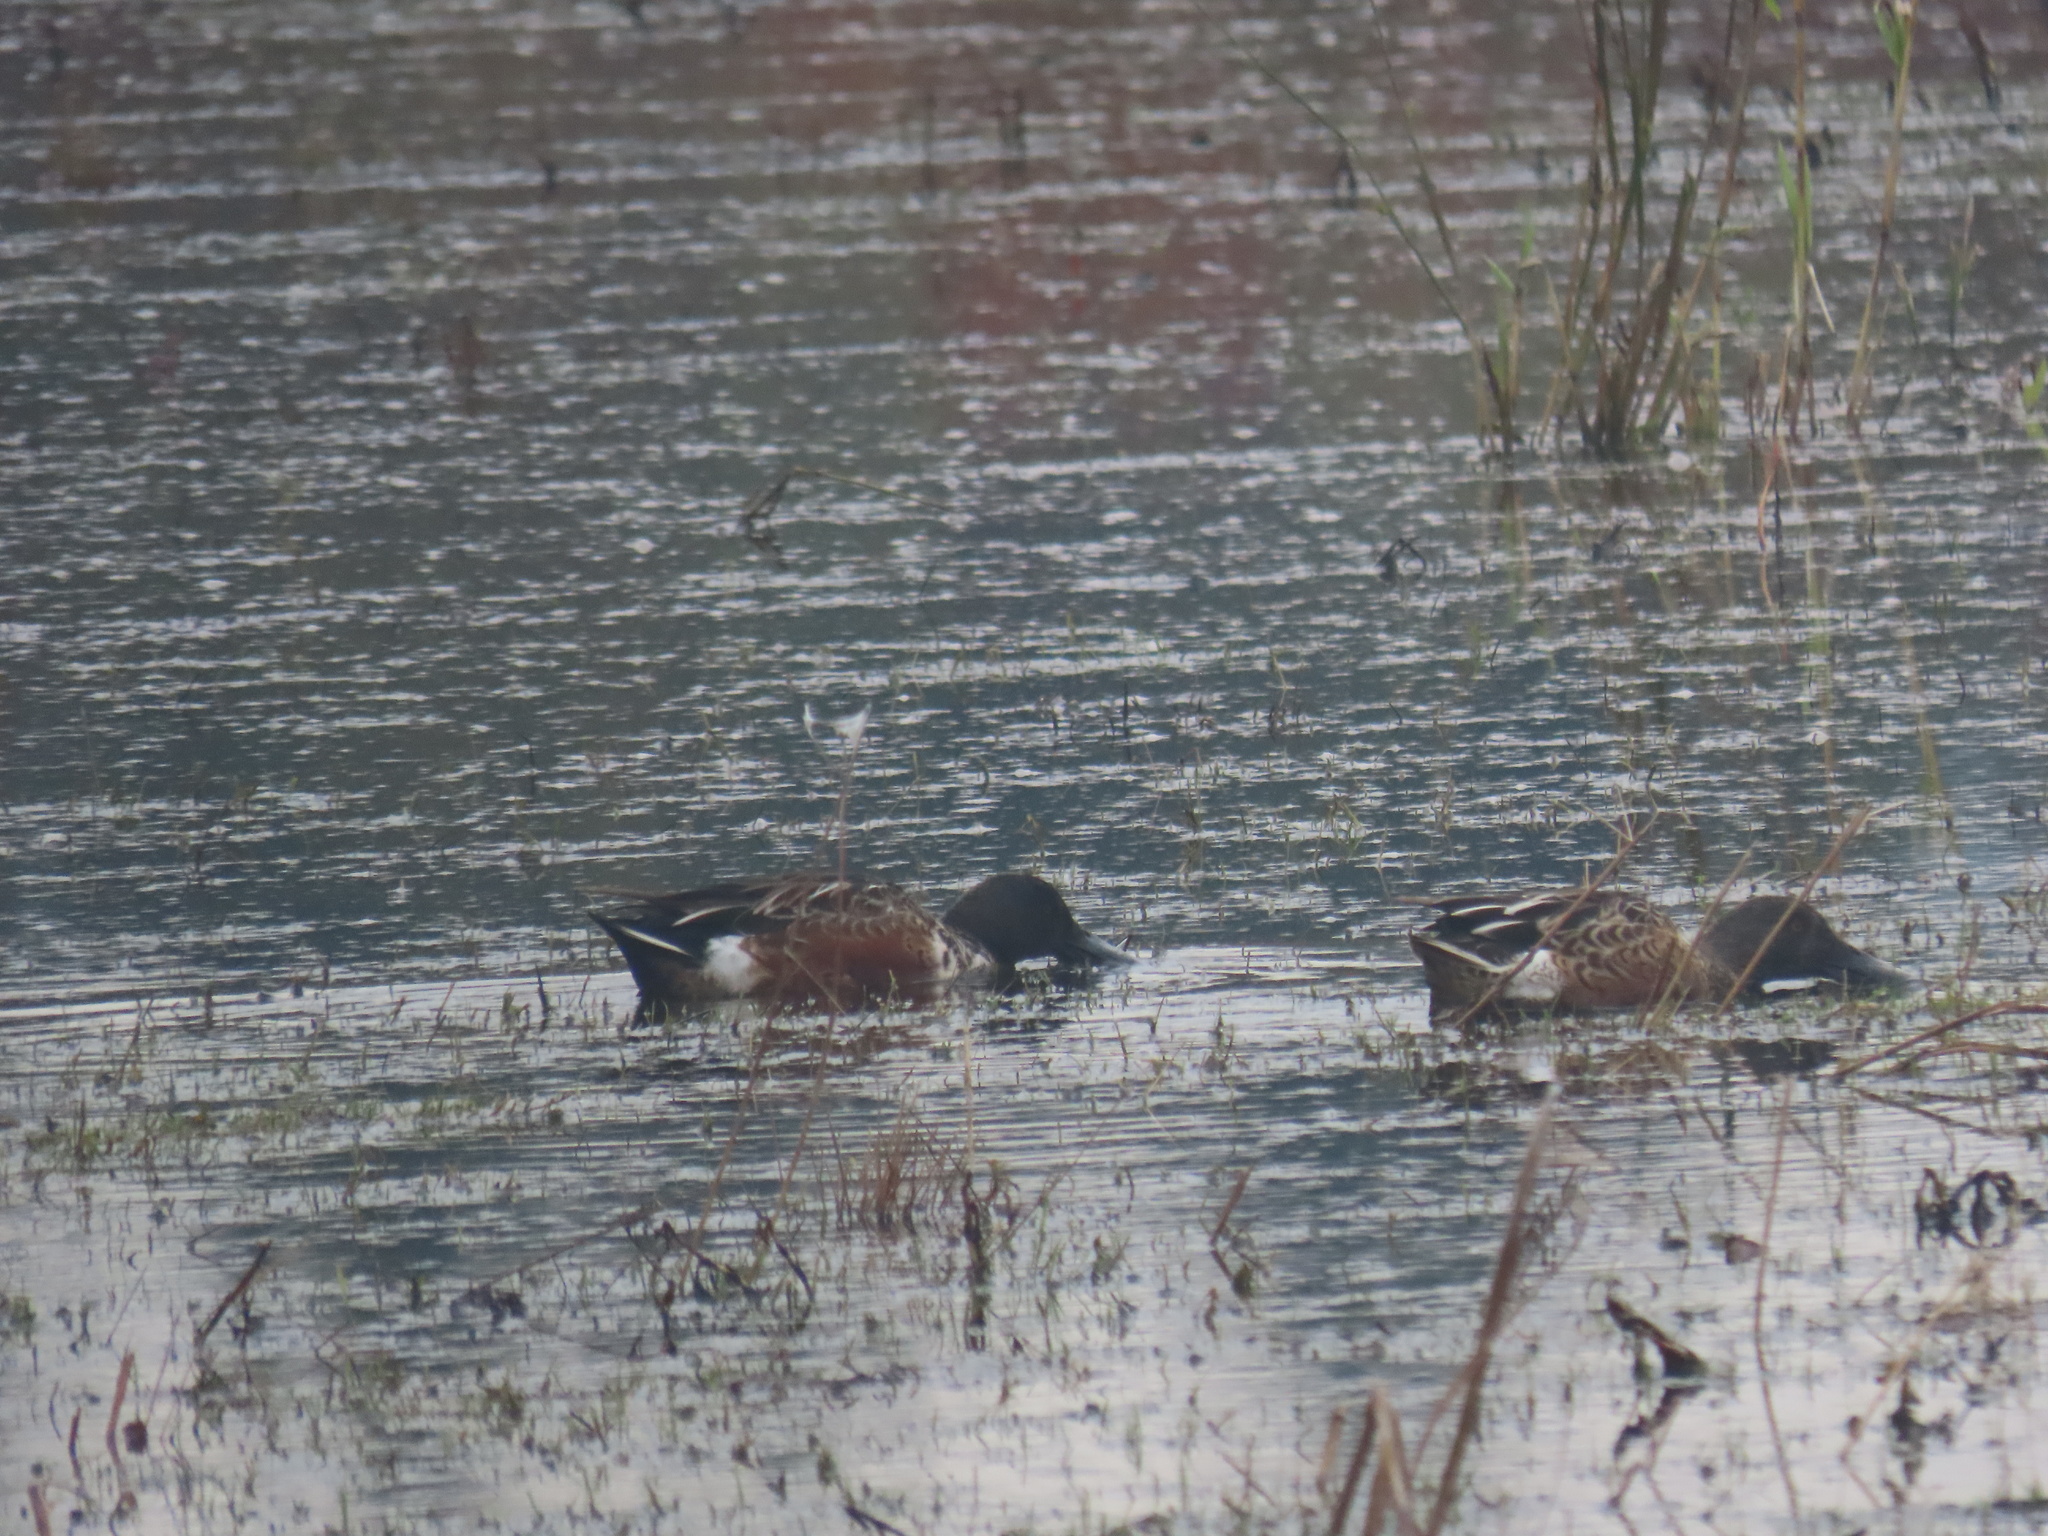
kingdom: Animalia
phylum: Chordata
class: Aves
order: Anseriformes
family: Anatidae
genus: Spatula
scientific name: Spatula clypeata
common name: Northern shoveler
